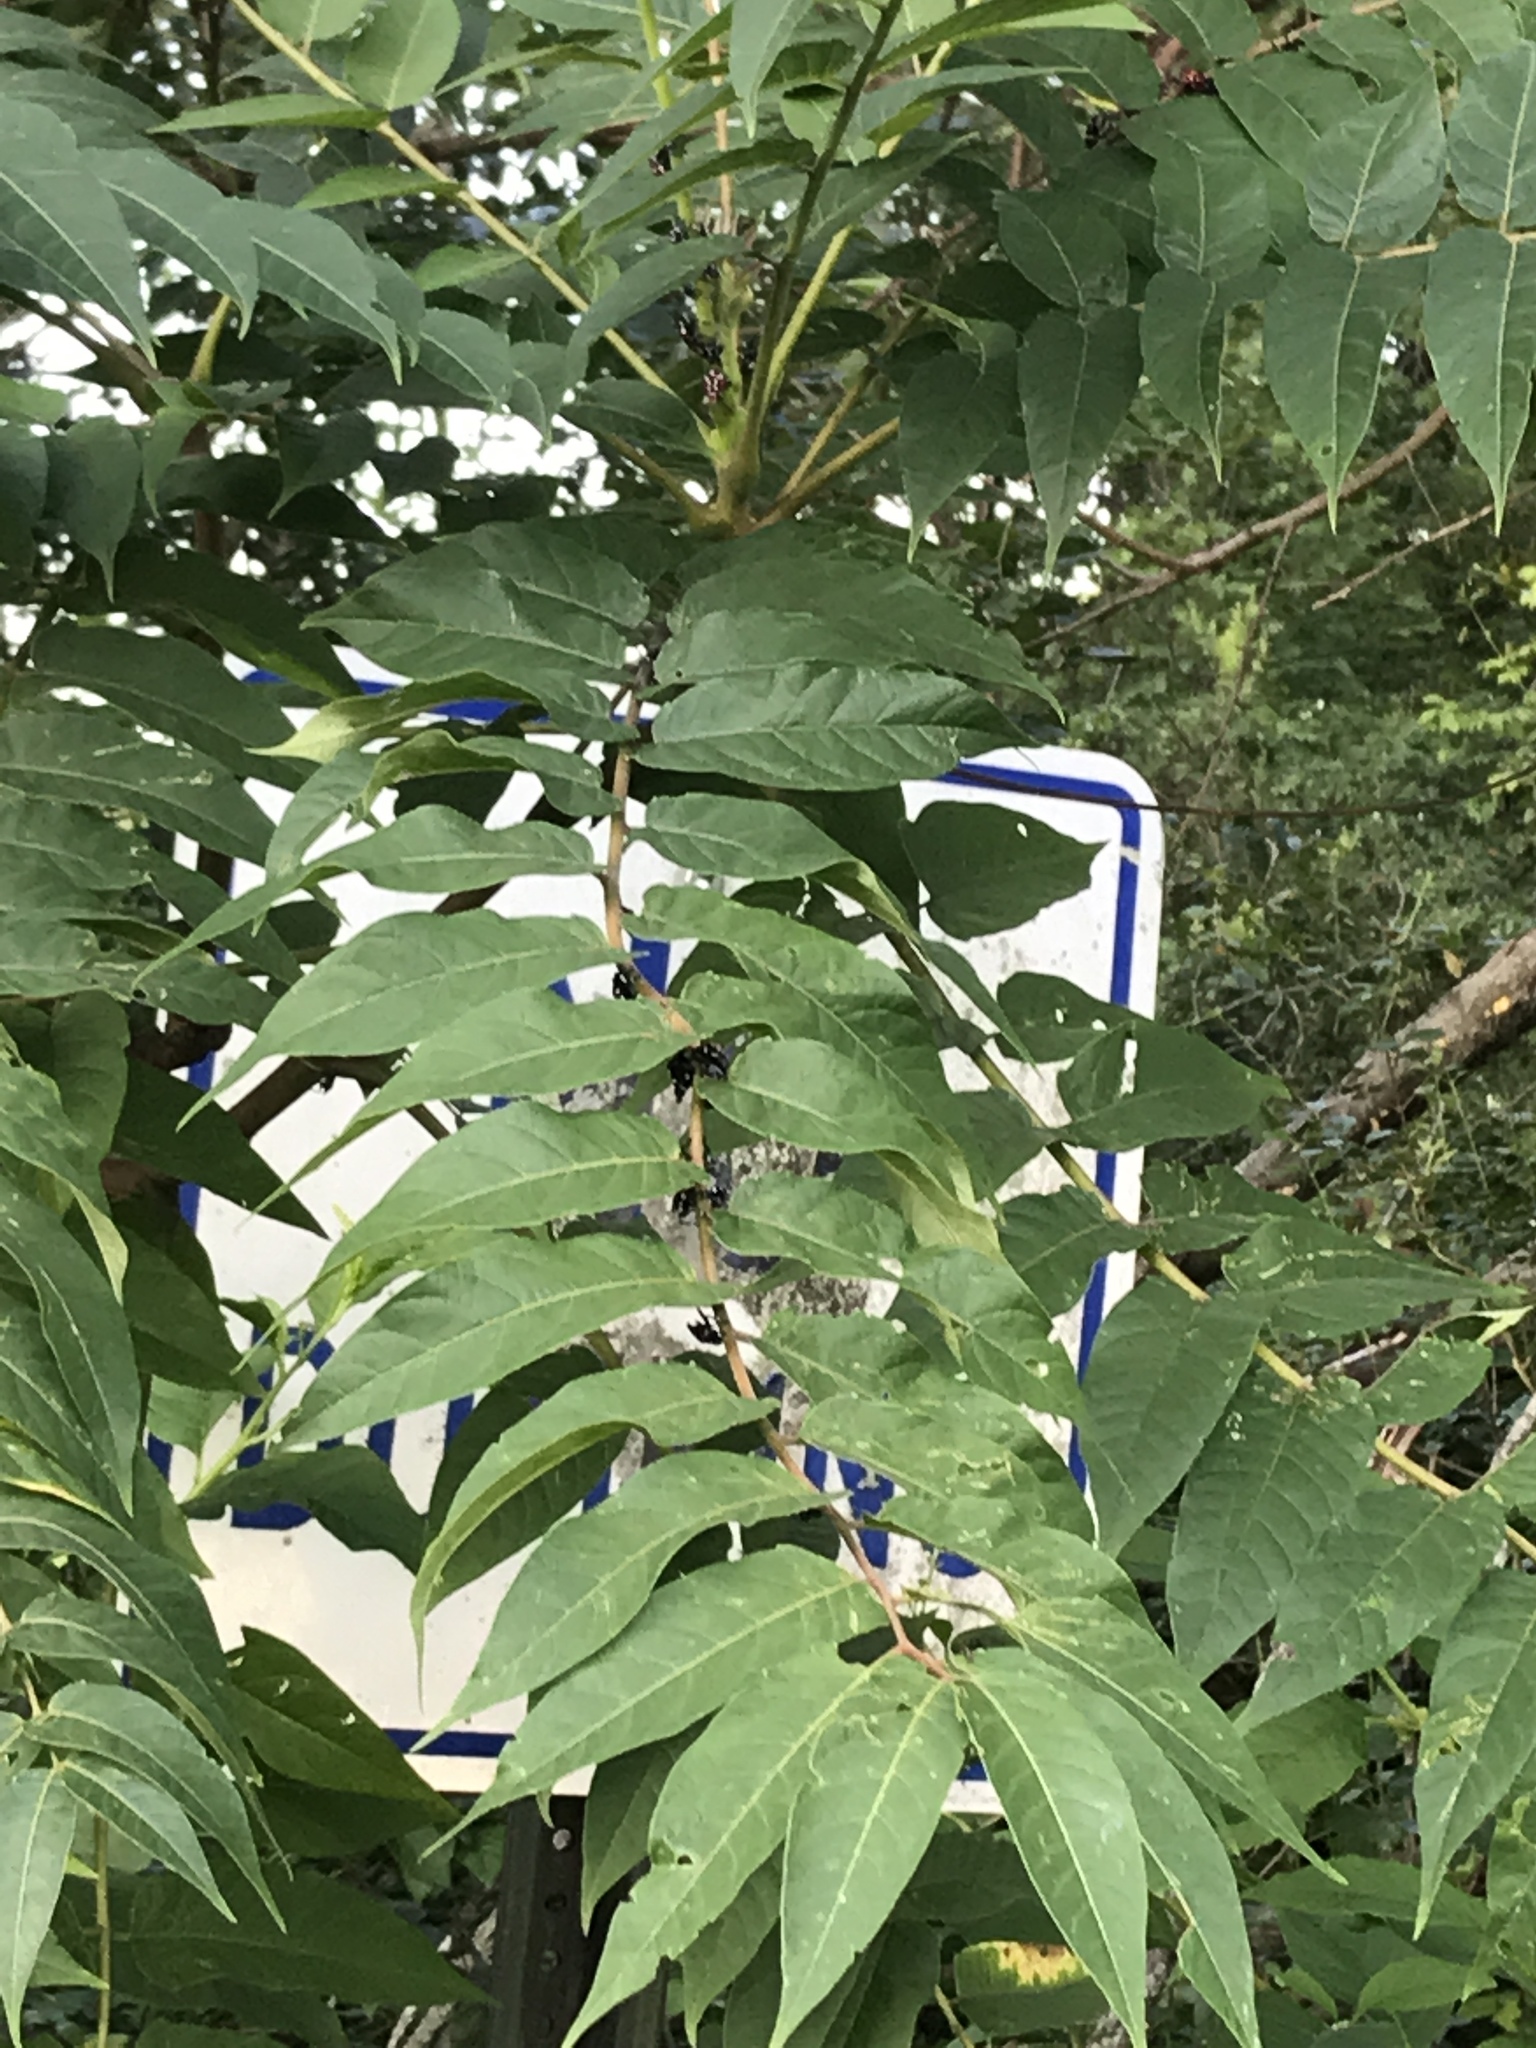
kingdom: Plantae
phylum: Tracheophyta
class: Magnoliopsida
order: Sapindales
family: Simaroubaceae
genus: Ailanthus
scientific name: Ailanthus altissima
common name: Tree-of-heaven
